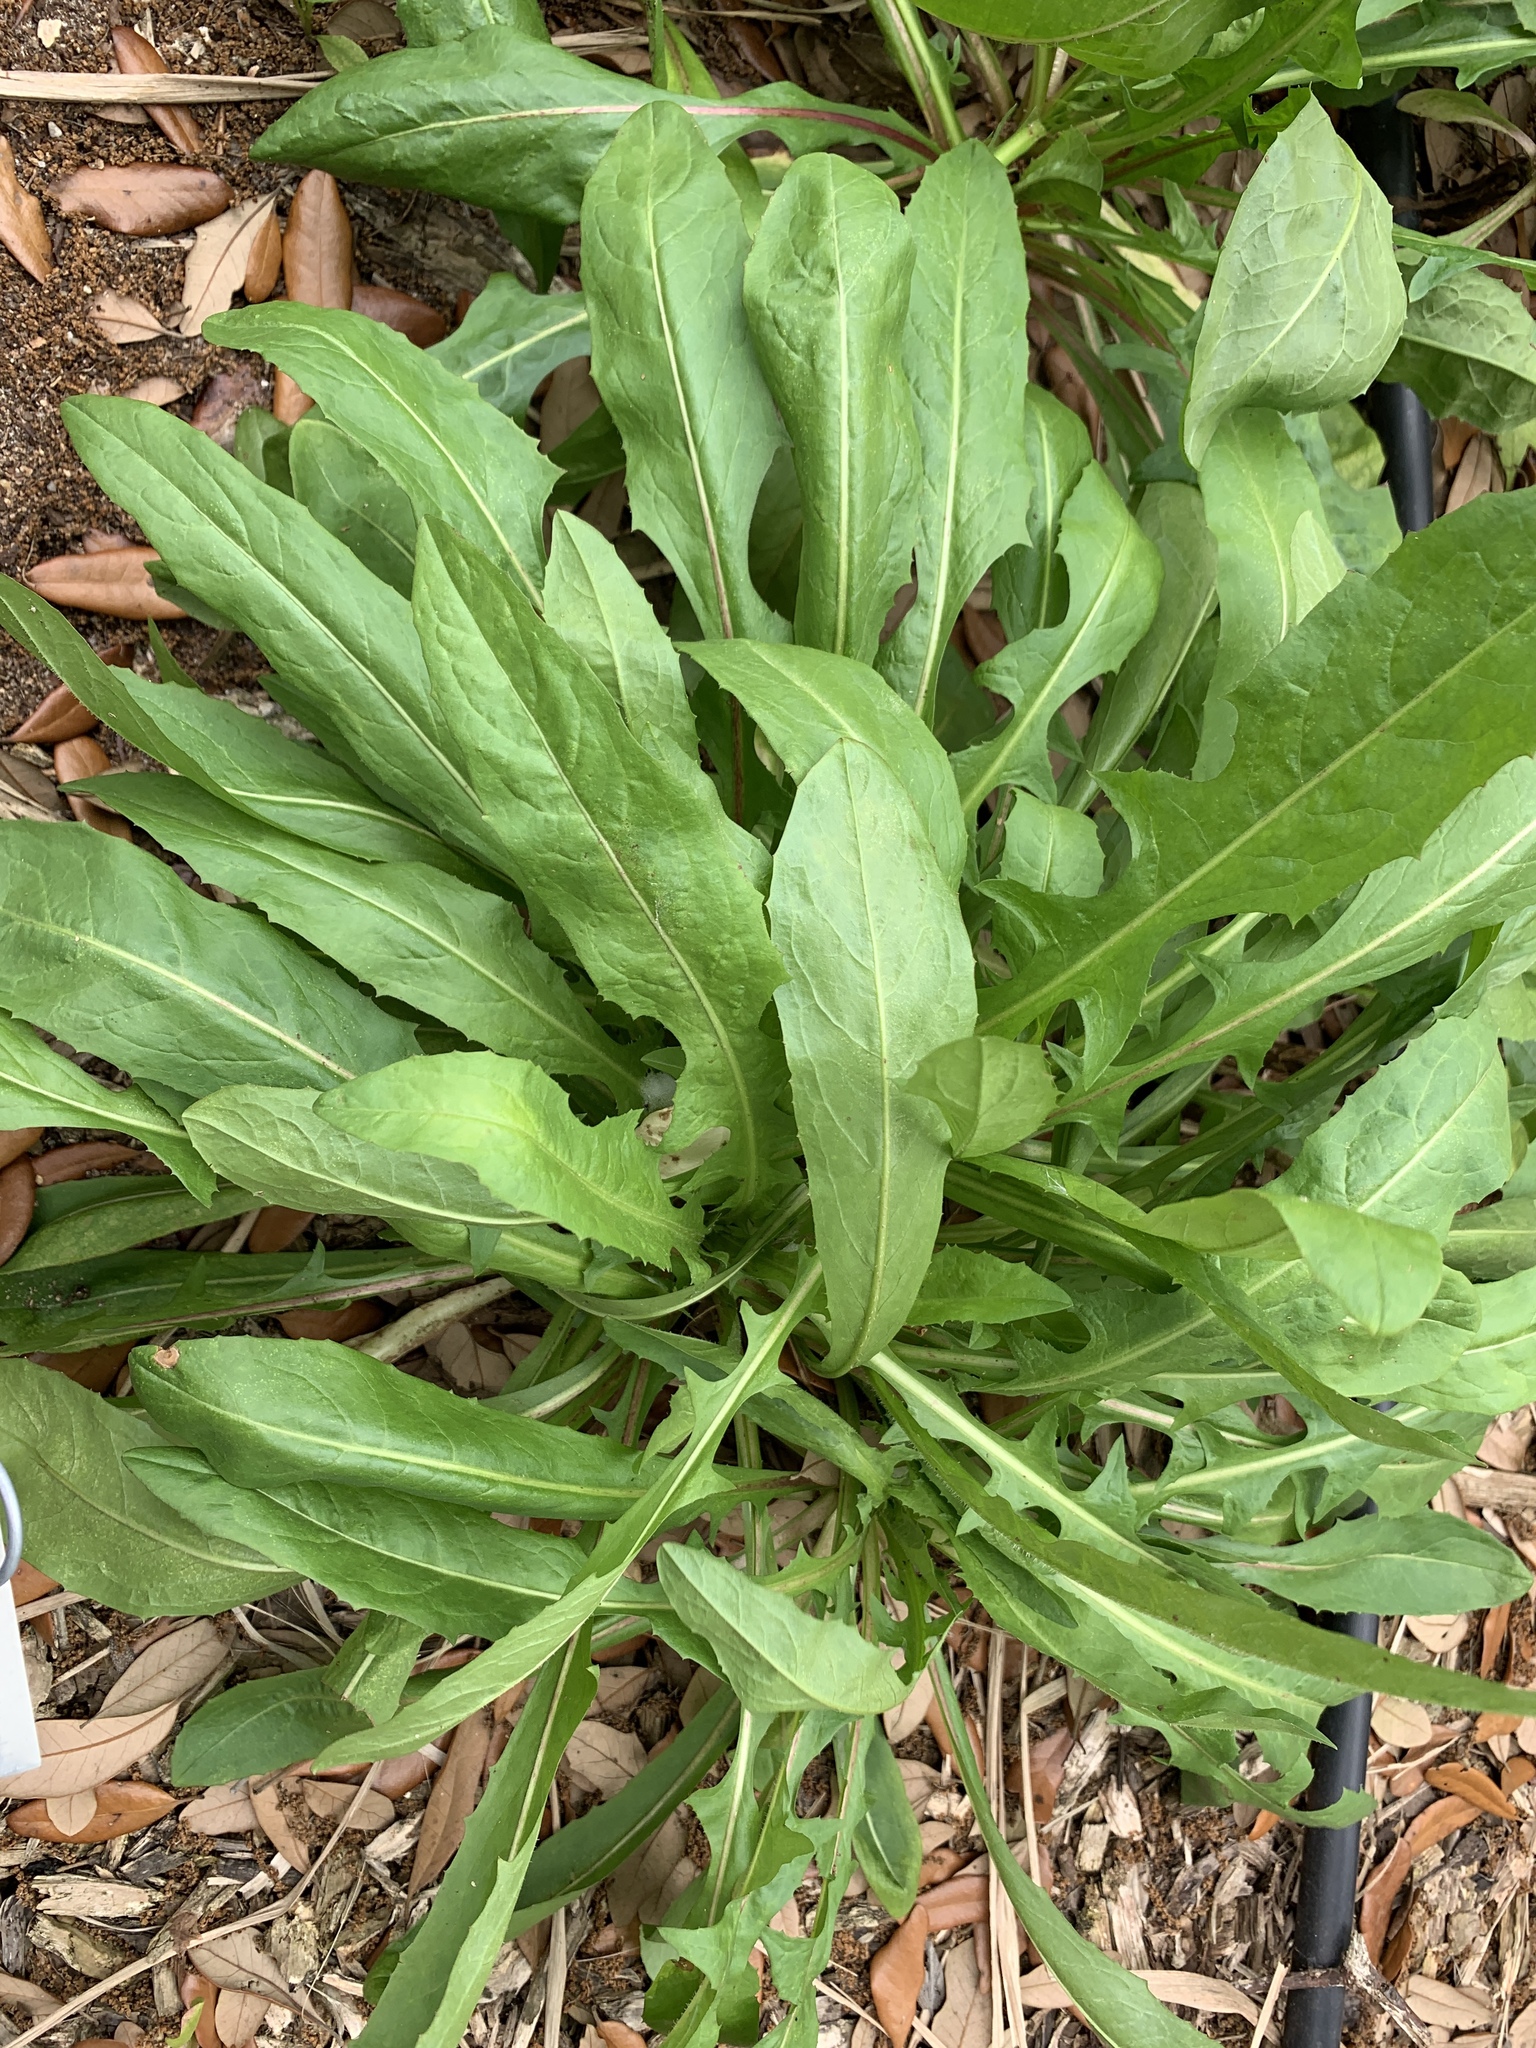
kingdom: Plantae
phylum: Tracheophyta
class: Magnoliopsida
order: Asterales
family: Asteraceae
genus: Cichorium
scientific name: Cichorium intybus
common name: Chicory
